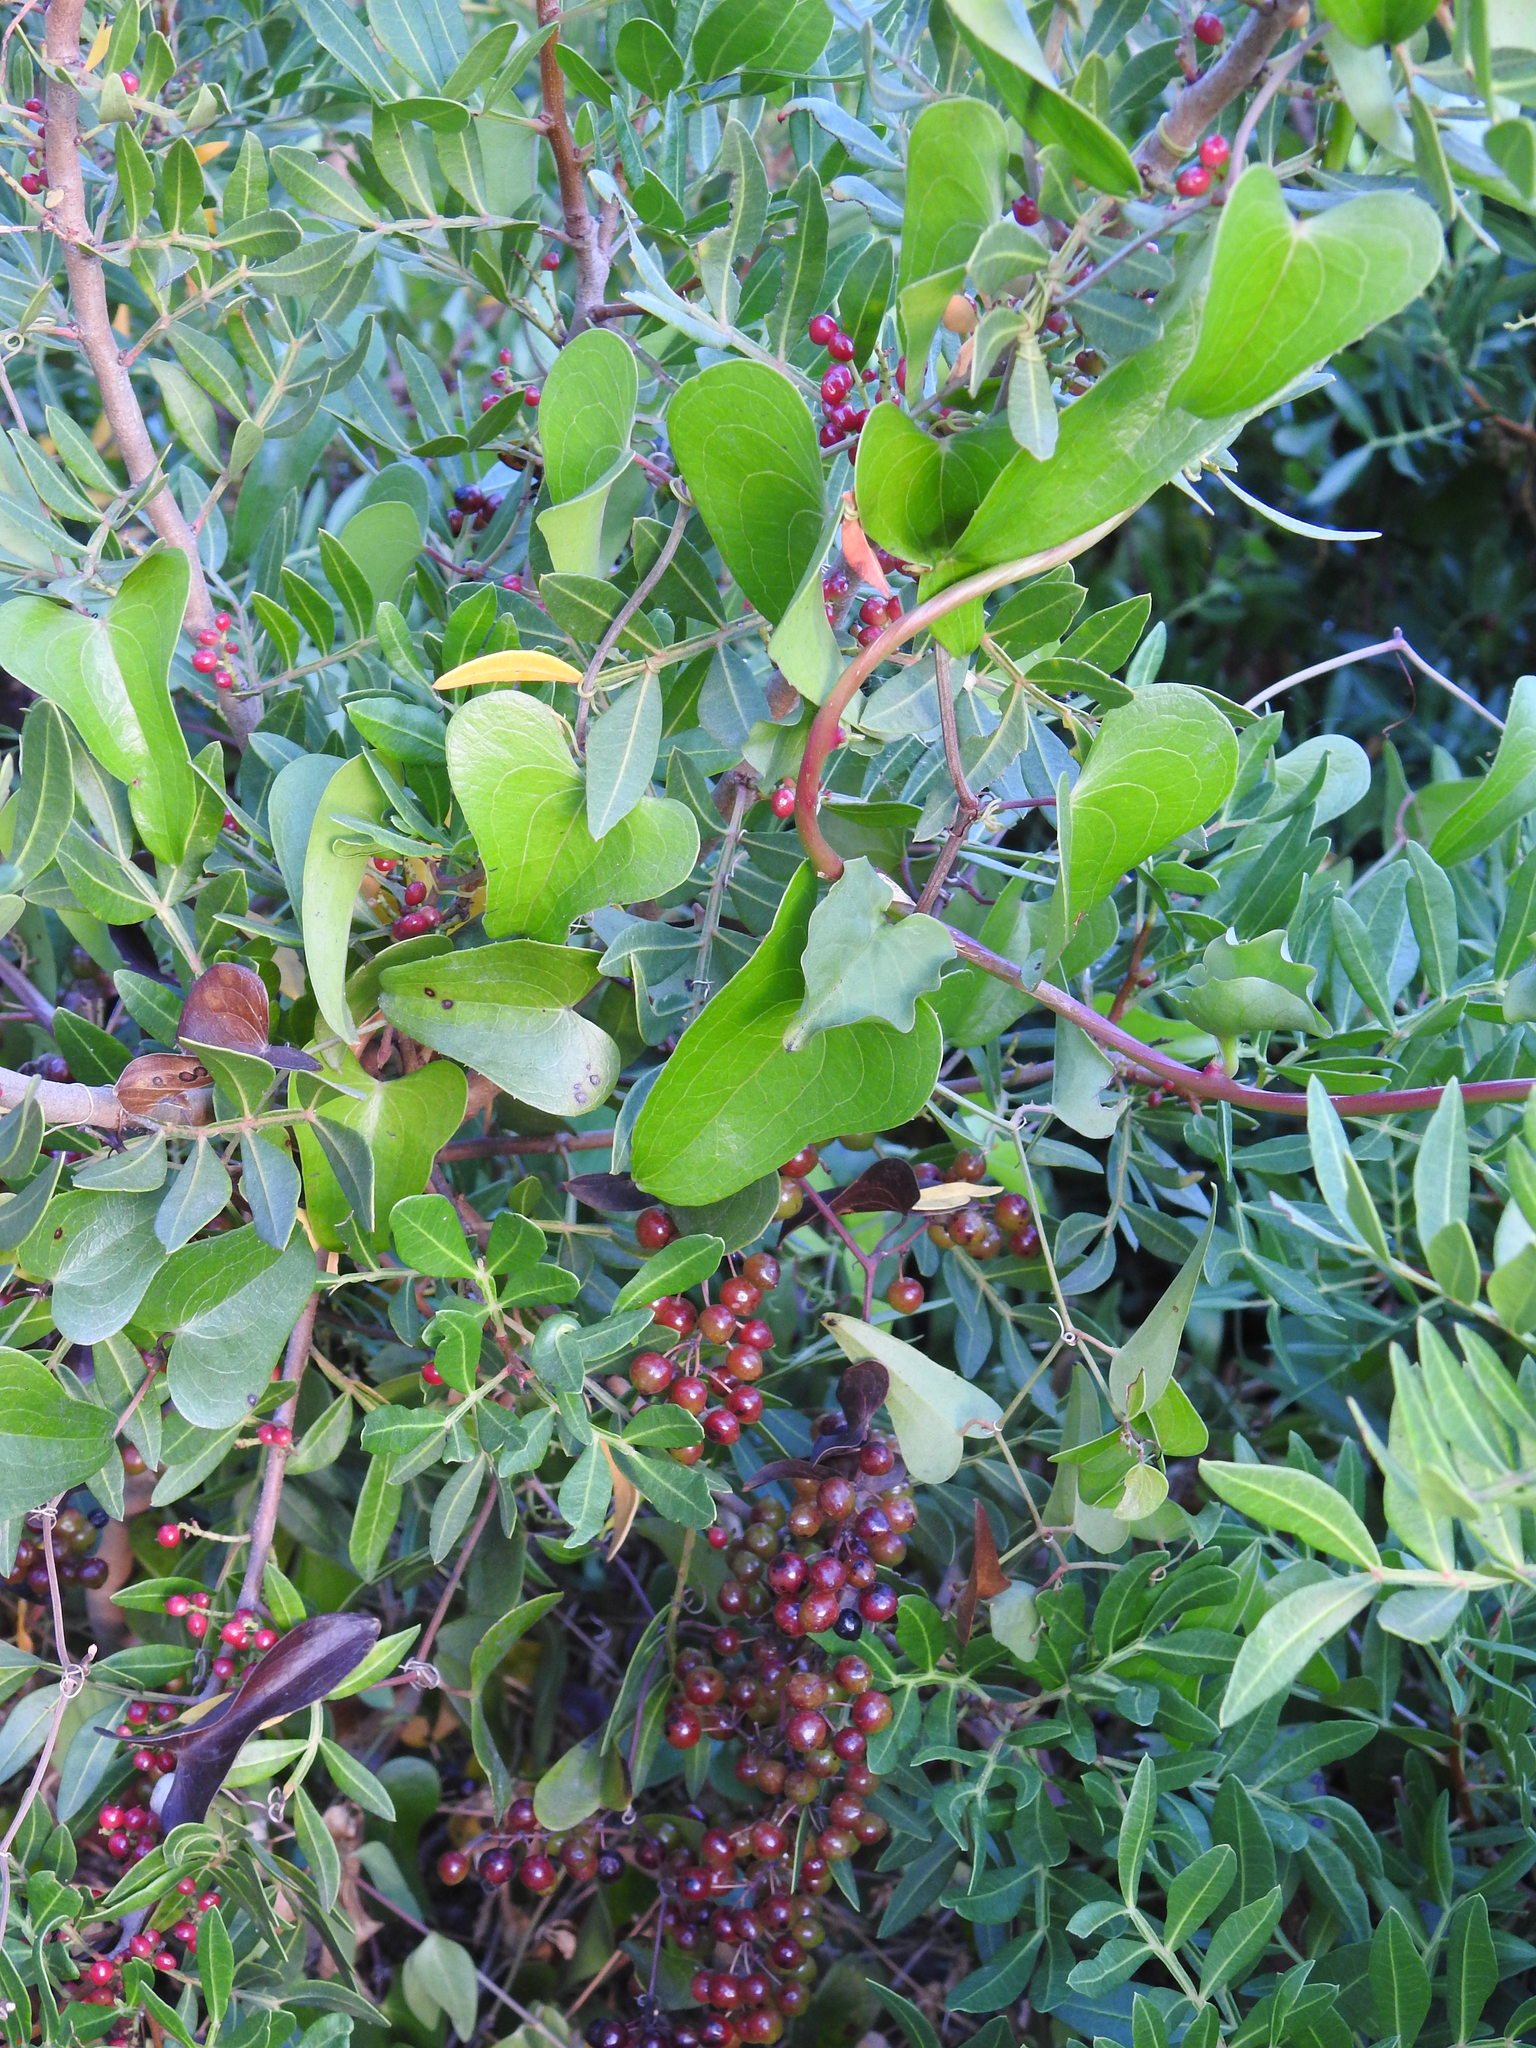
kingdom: Plantae
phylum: Tracheophyta
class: Liliopsida
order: Liliales
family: Smilacaceae
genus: Smilax
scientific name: Smilax aspera
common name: Common smilax
